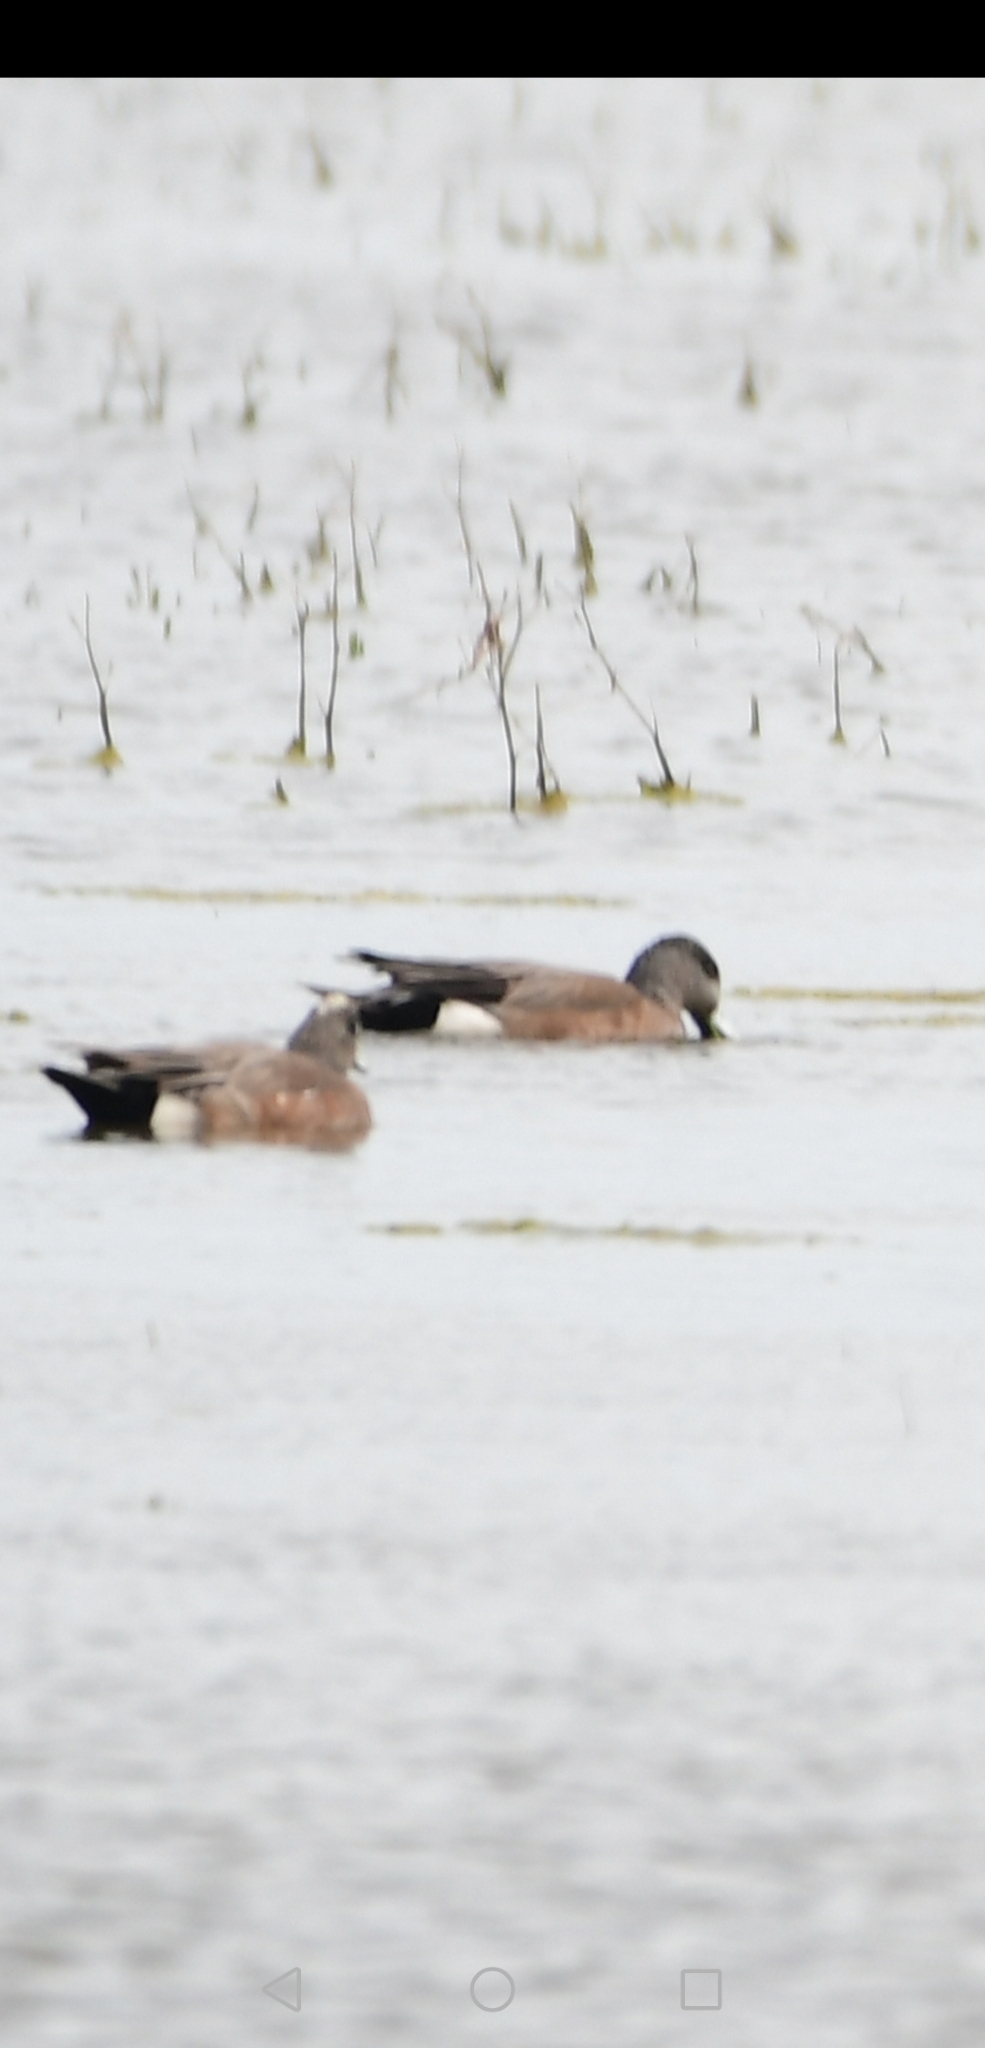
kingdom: Animalia
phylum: Chordata
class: Aves
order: Anseriformes
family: Anatidae
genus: Mareca
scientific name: Mareca americana
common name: American wigeon
